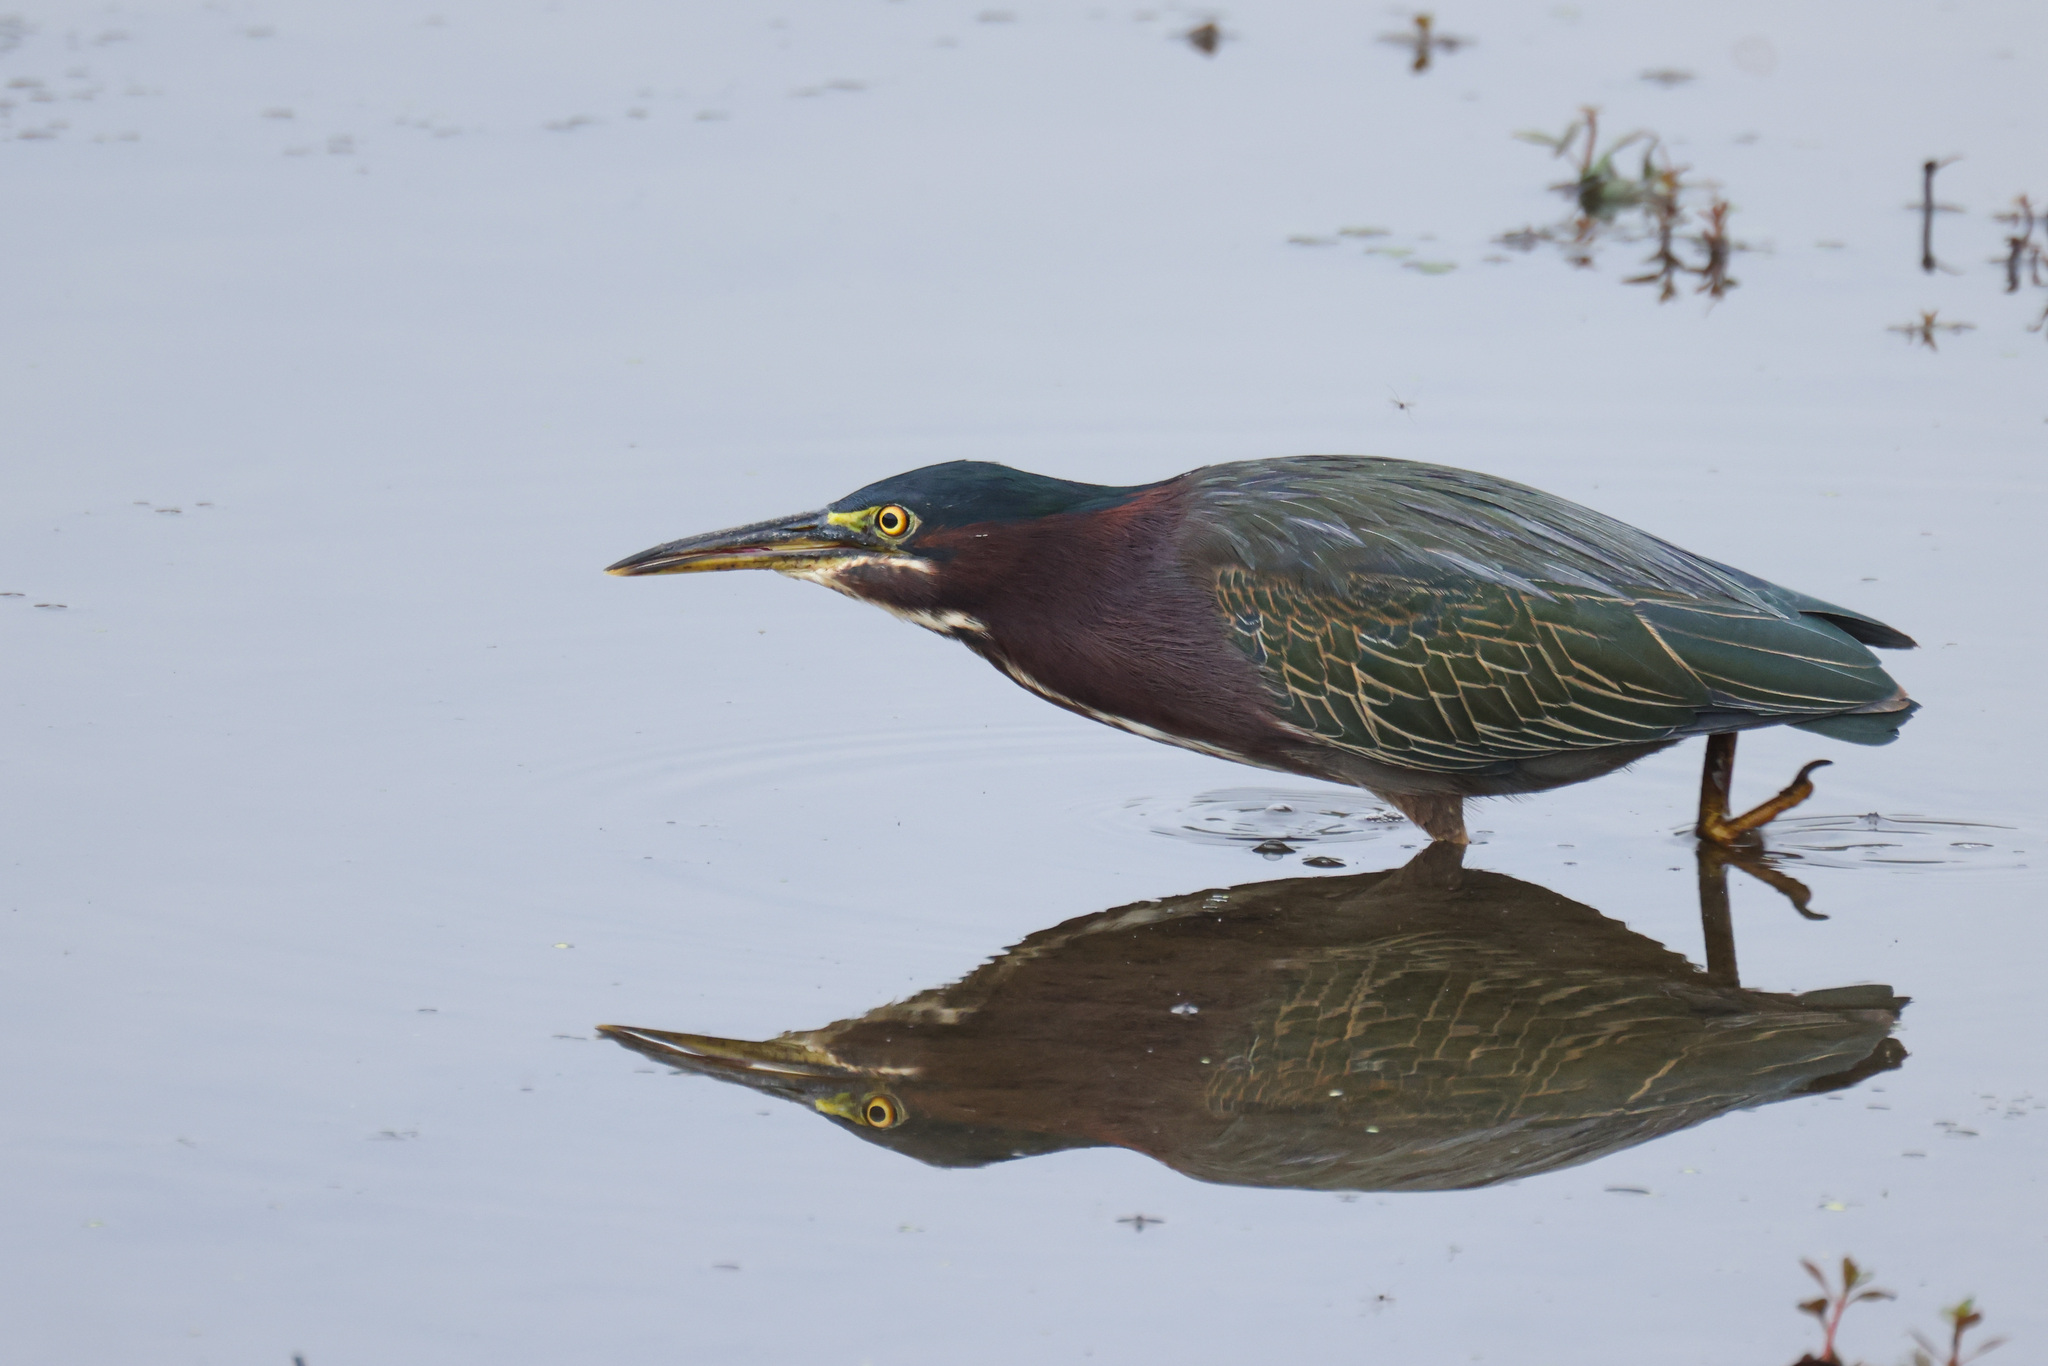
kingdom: Animalia
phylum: Chordata
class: Aves
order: Pelecaniformes
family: Ardeidae
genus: Butorides
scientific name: Butorides virescens
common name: Green heron
